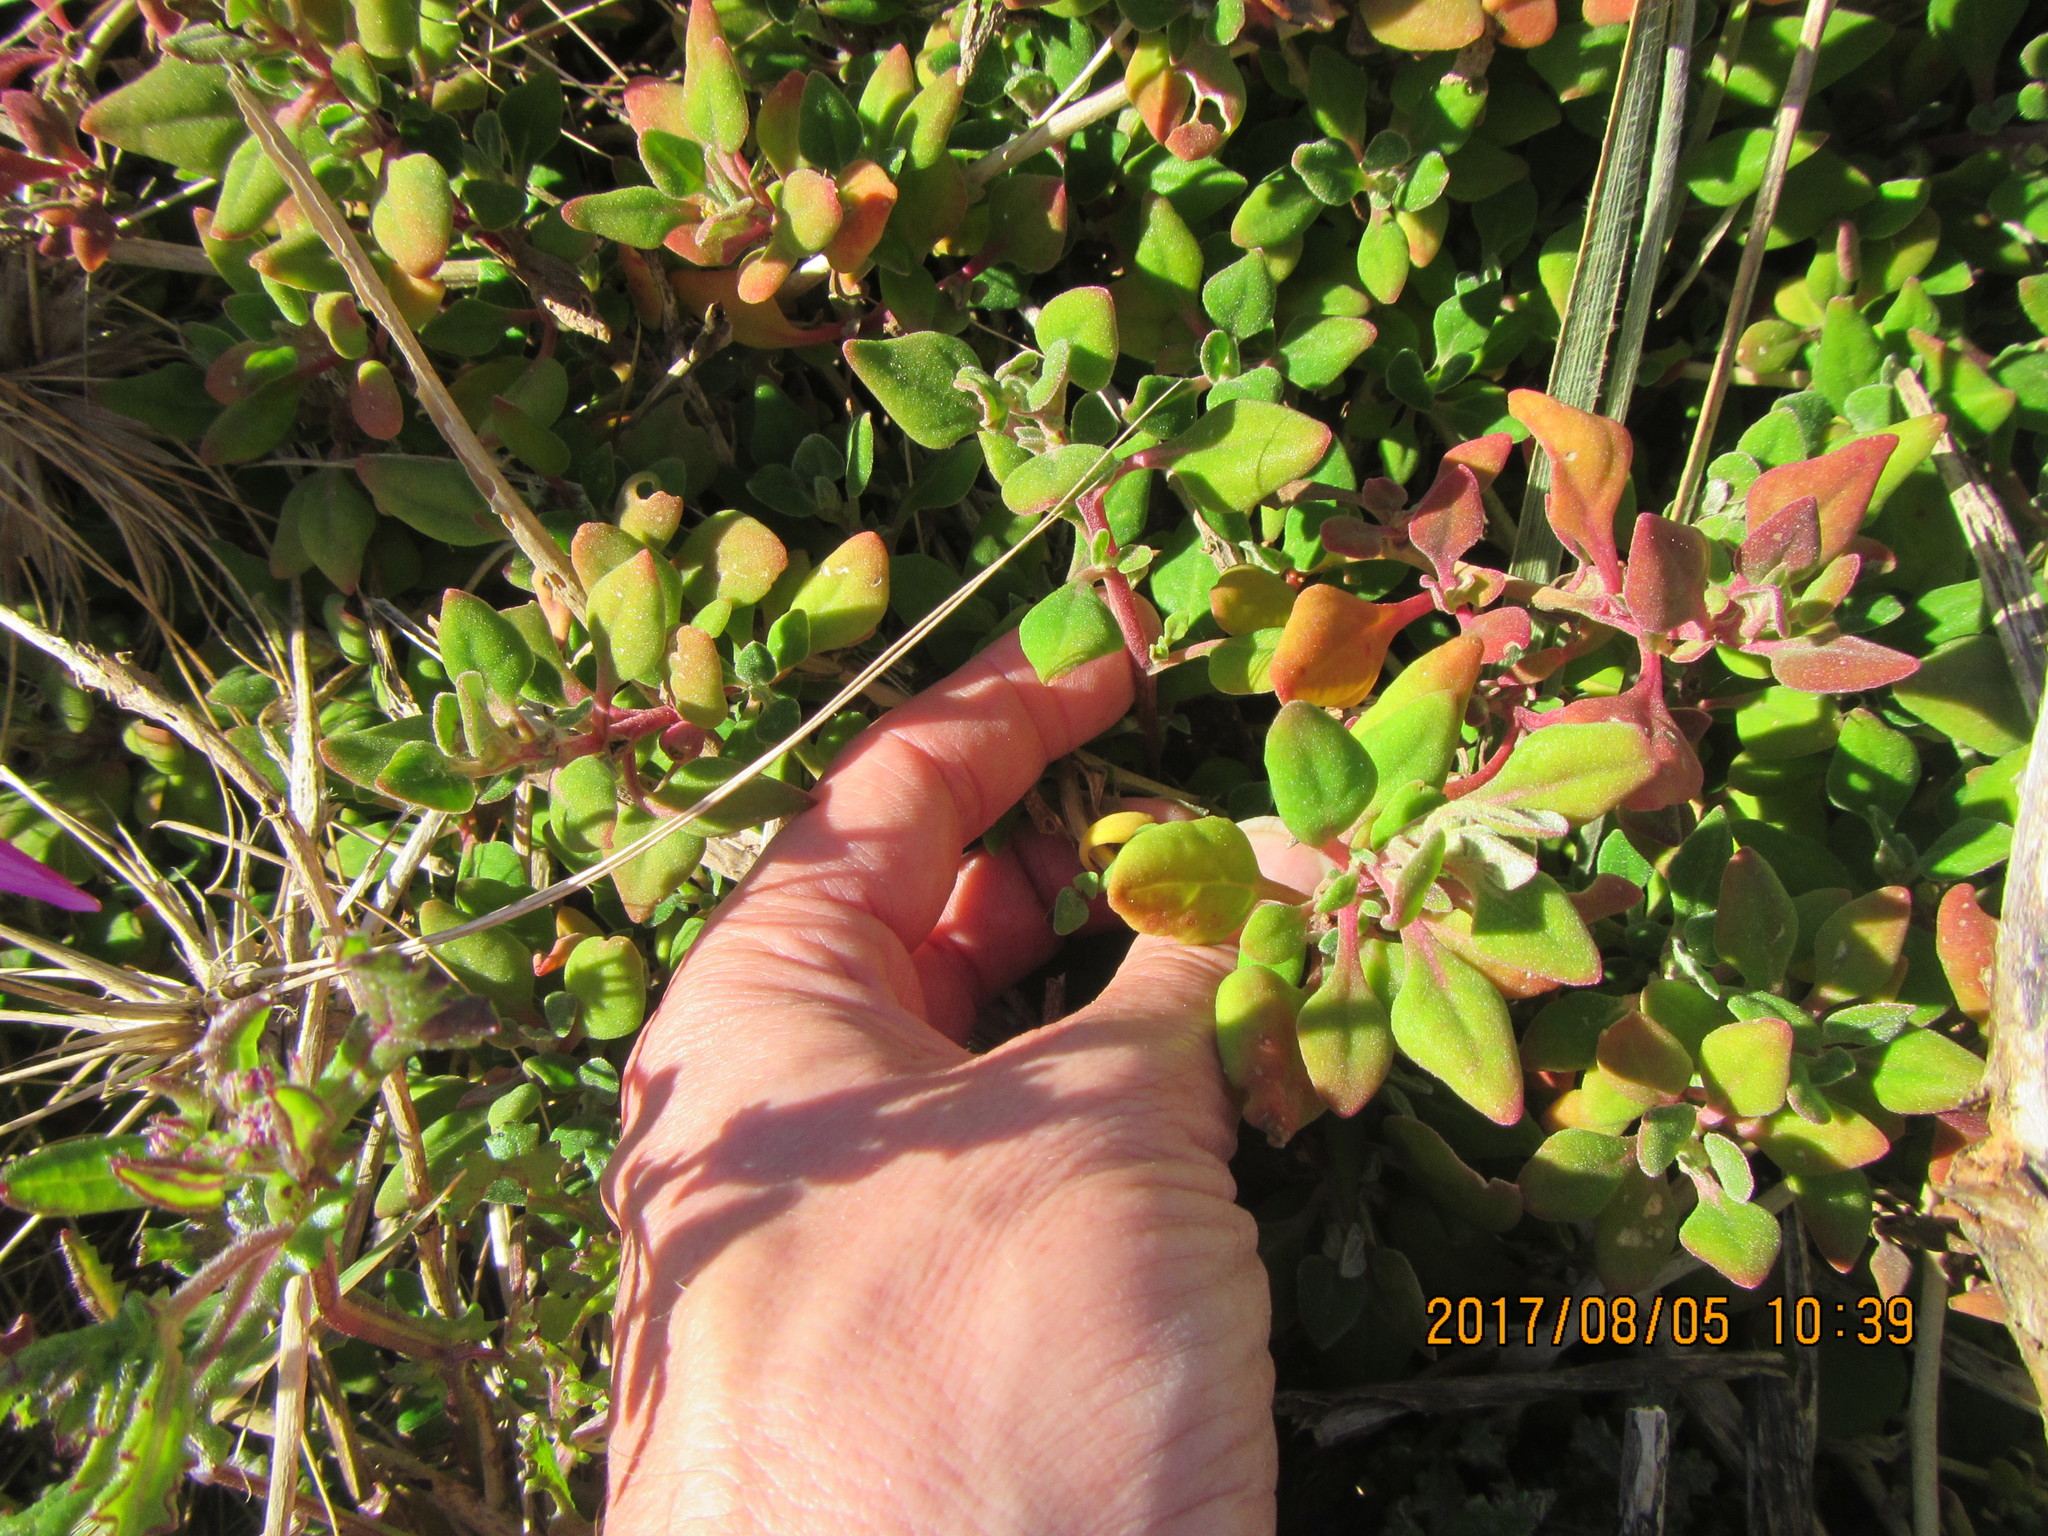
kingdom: Plantae
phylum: Tracheophyta
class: Magnoliopsida
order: Caryophyllales
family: Aizoaceae
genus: Tetragonia
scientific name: Tetragonia implexicoma
